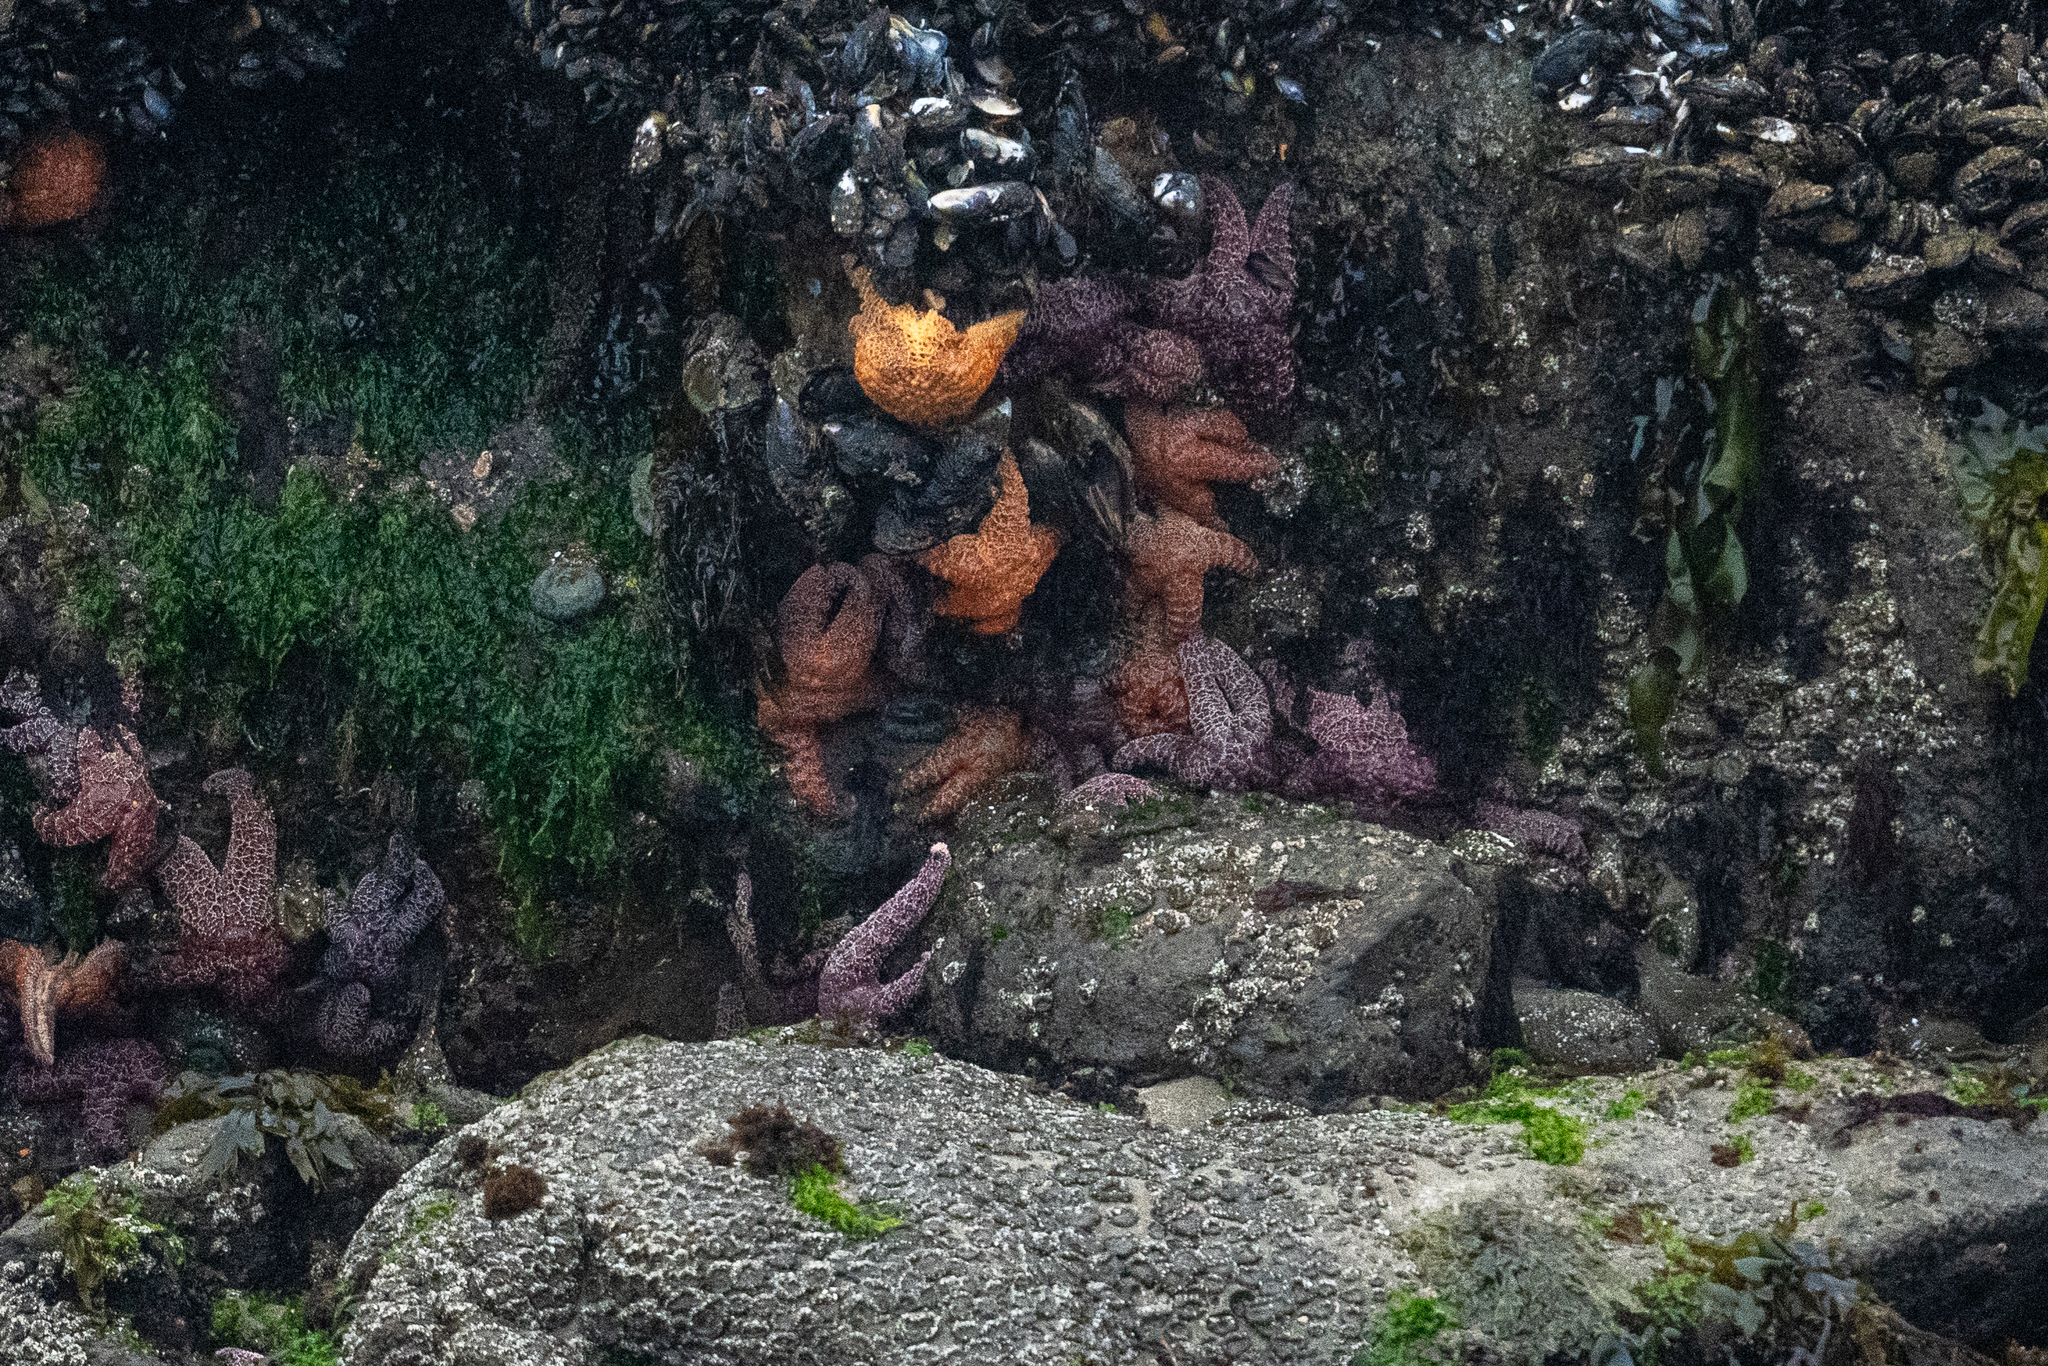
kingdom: Animalia
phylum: Echinodermata
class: Asteroidea
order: Forcipulatida
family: Asteriidae
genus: Pisaster
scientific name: Pisaster ochraceus
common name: Ochre stars
